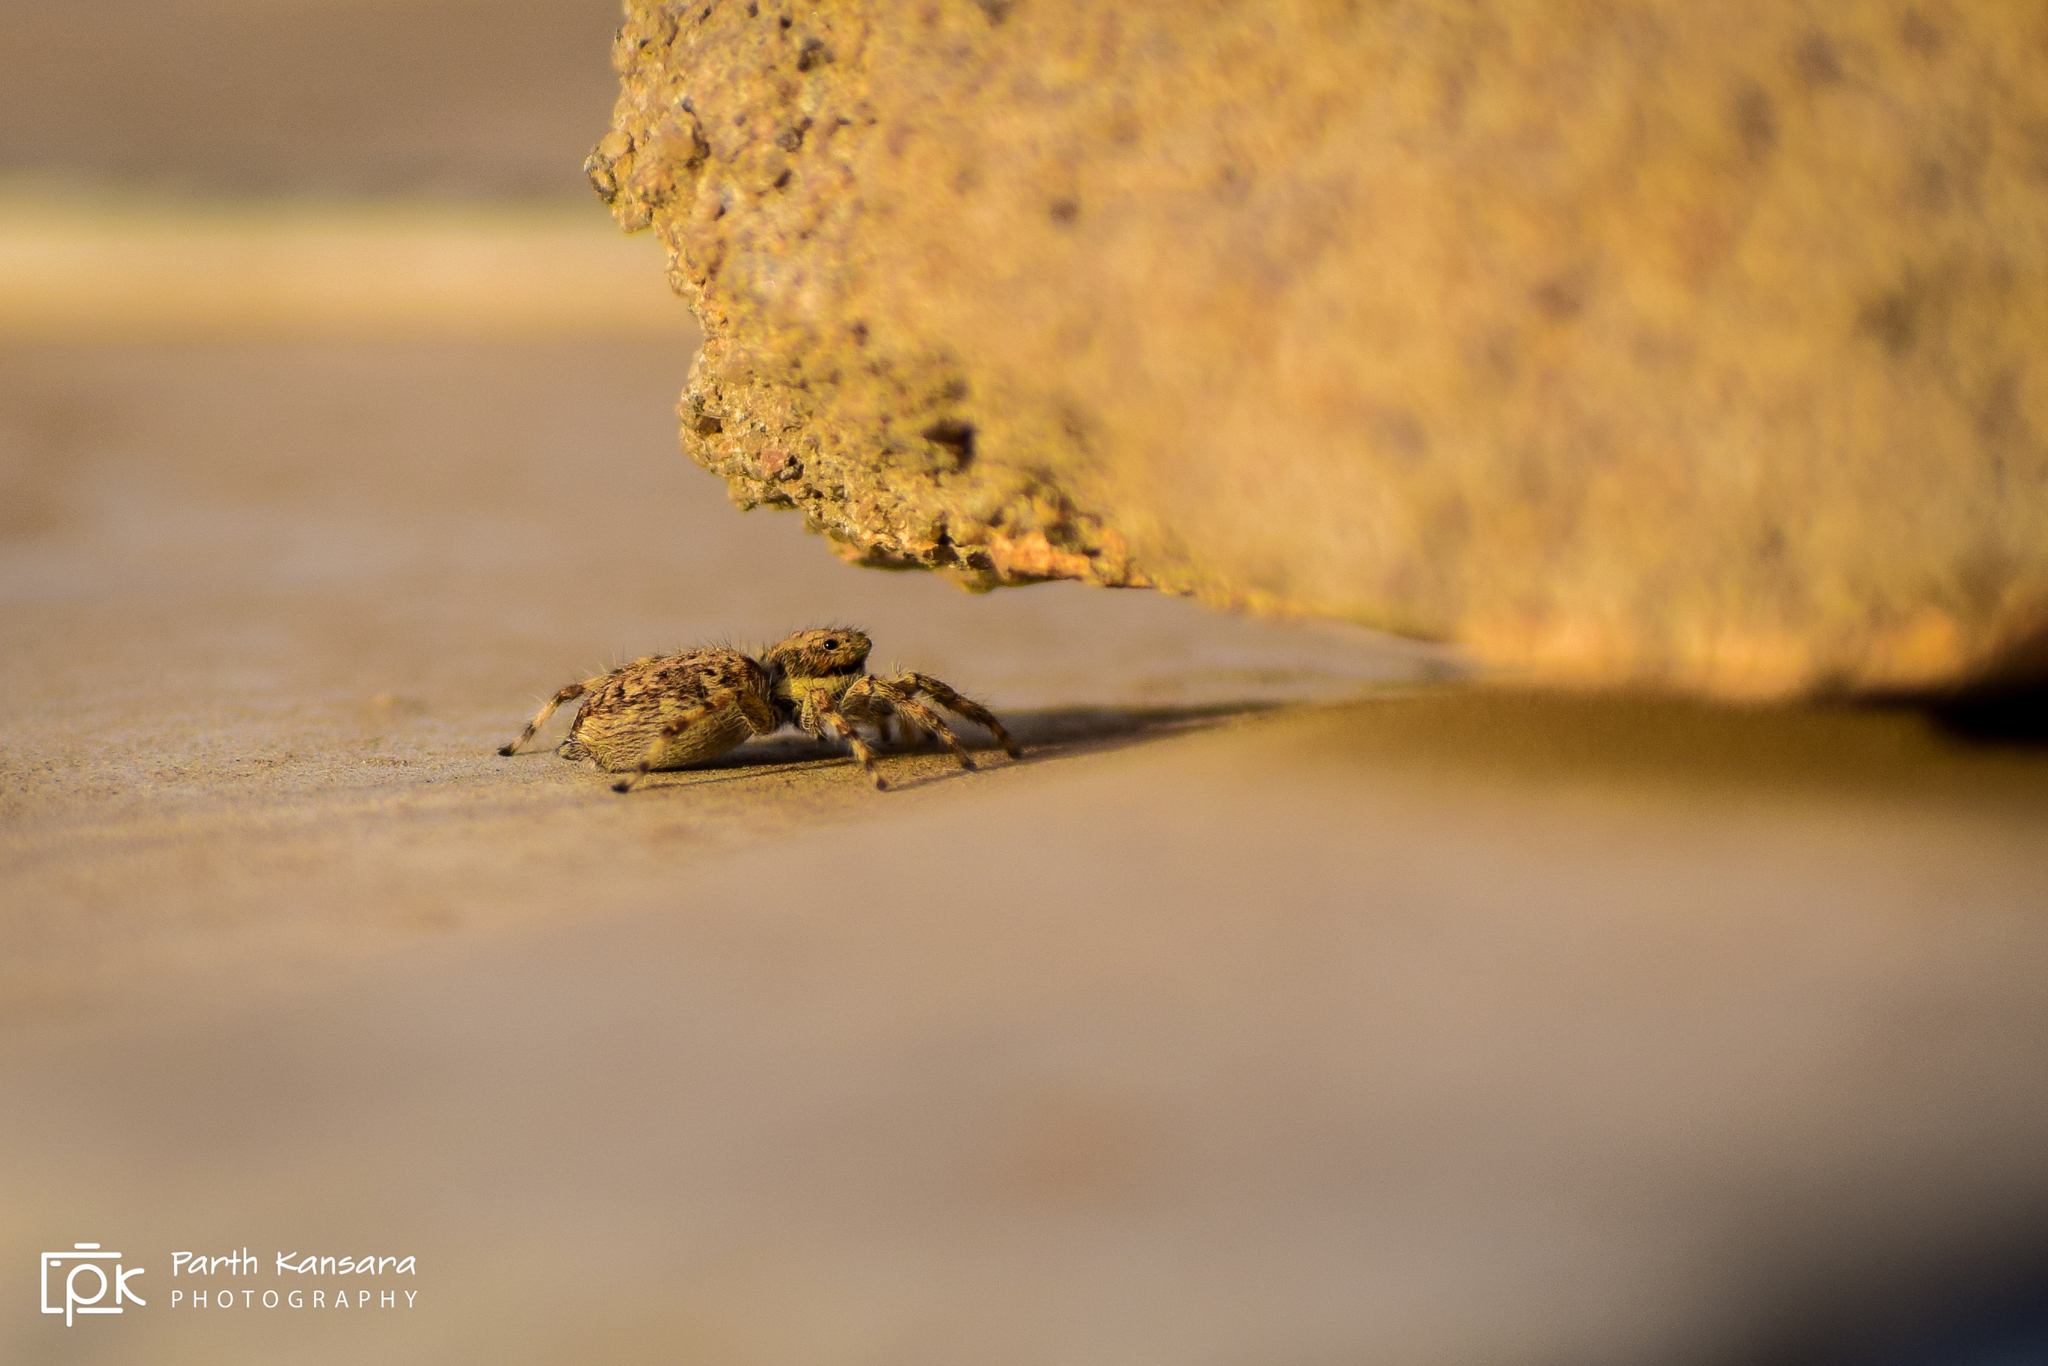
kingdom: Animalia
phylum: Arthropoda
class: Arachnida
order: Araneae
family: Salticidae
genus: Menemerus
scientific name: Menemerus nigli
